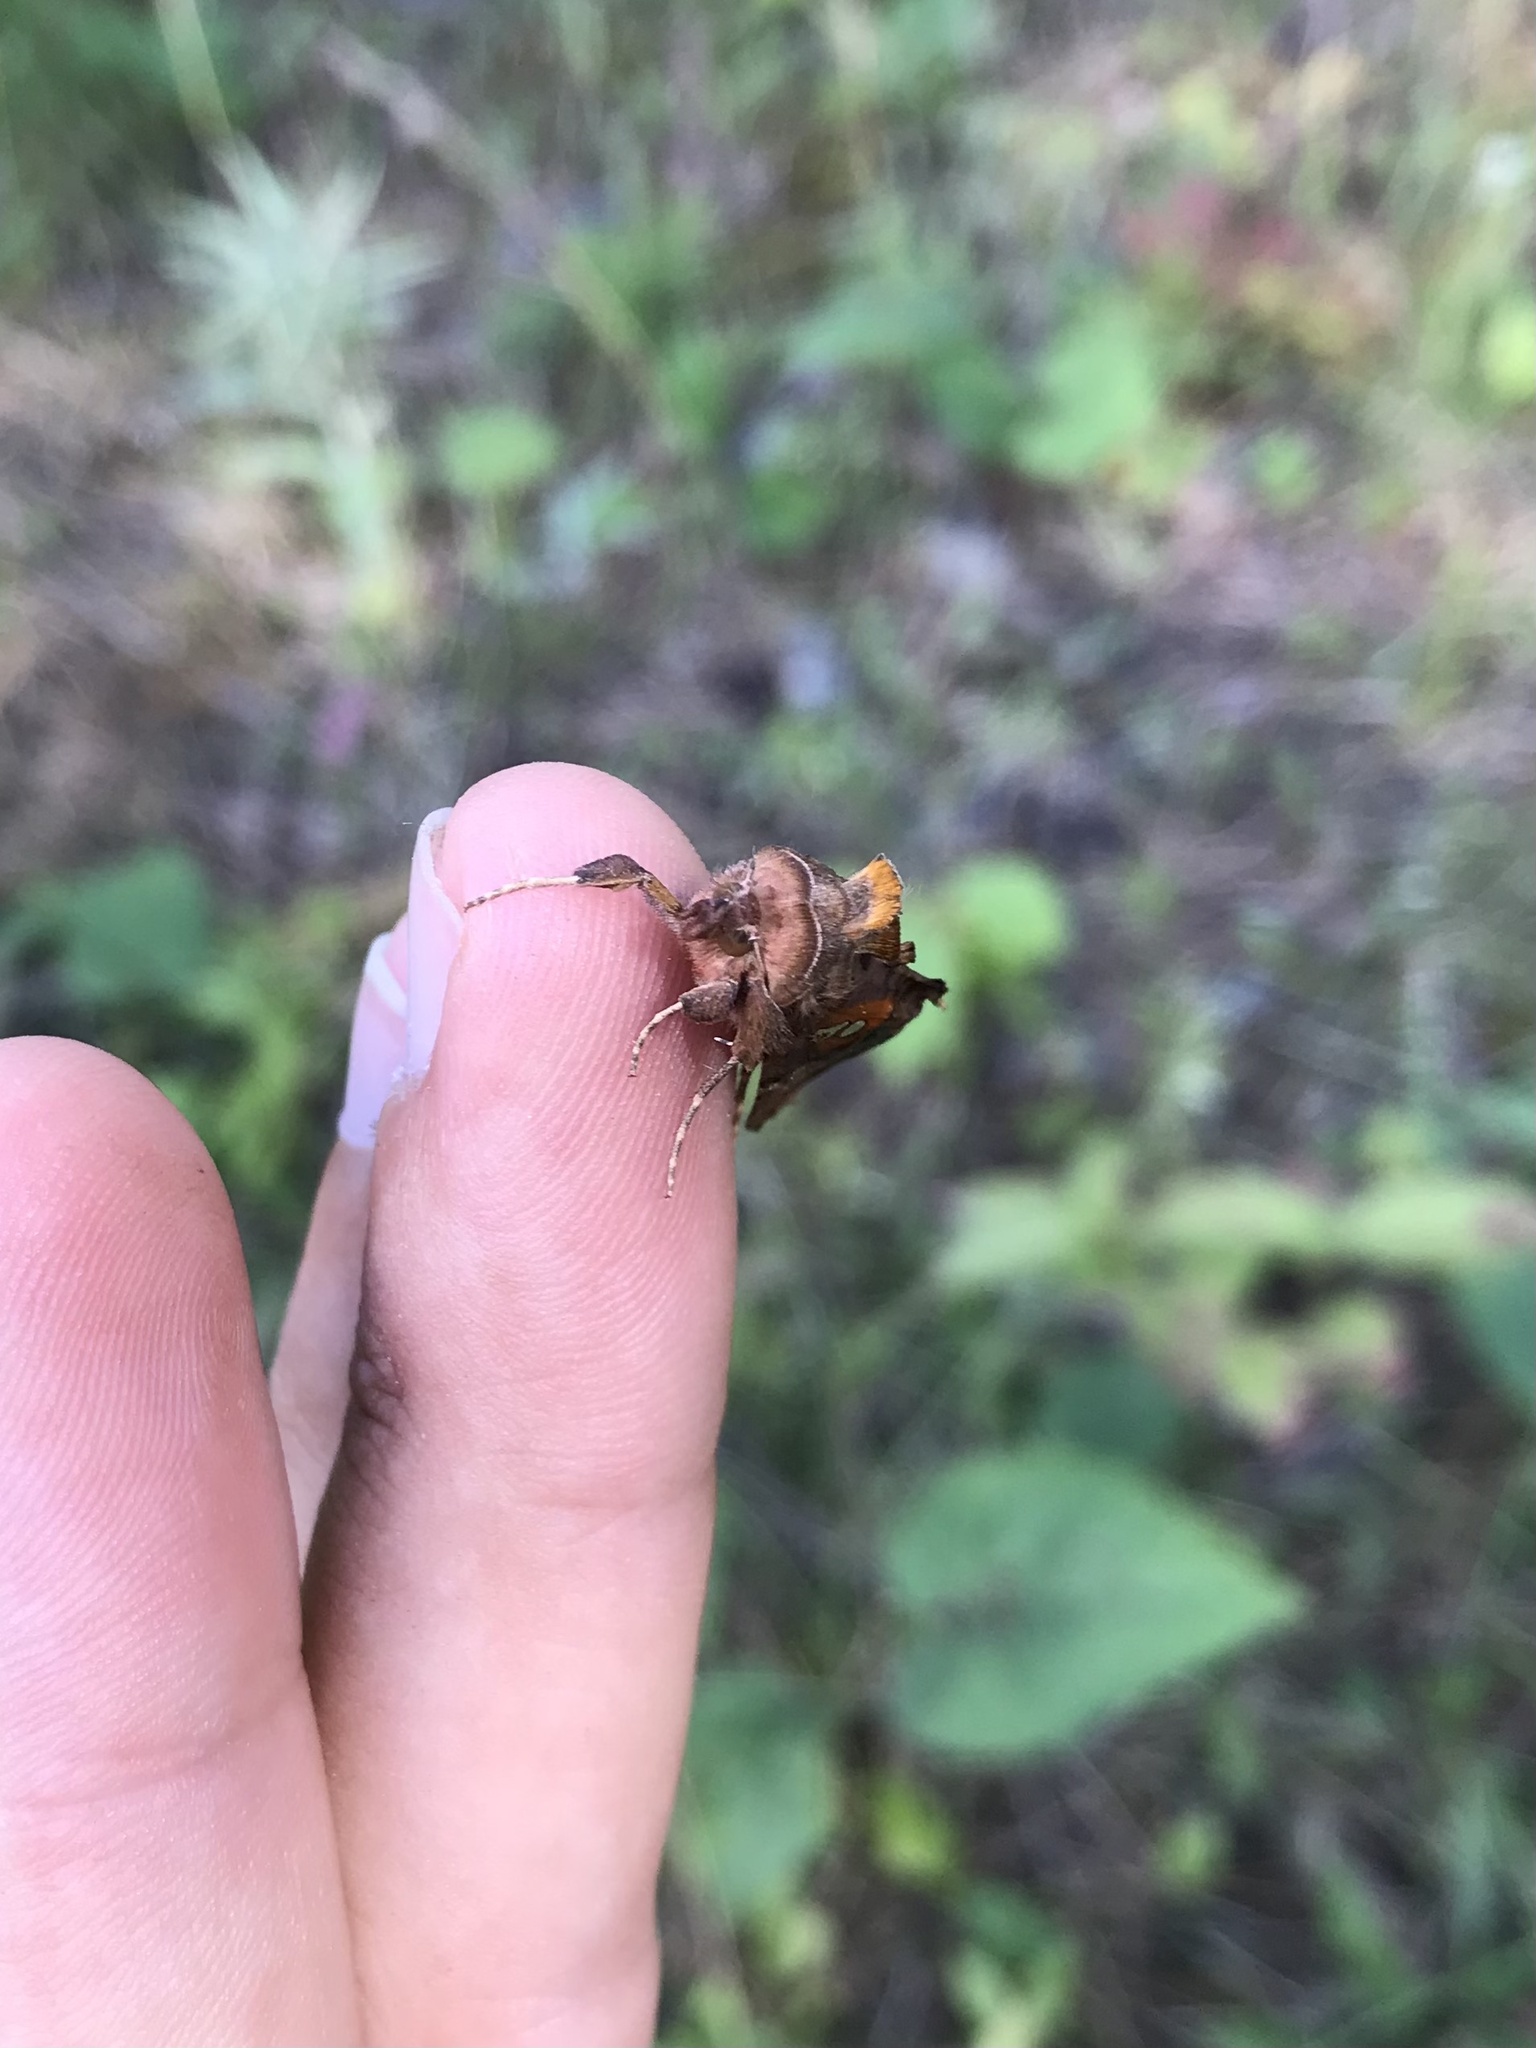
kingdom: Animalia
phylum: Arthropoda
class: Insecta
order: Lepidoptera
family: Noctuidae
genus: Autographa
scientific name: Autographa bimaculata
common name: Double-spotted spangle
